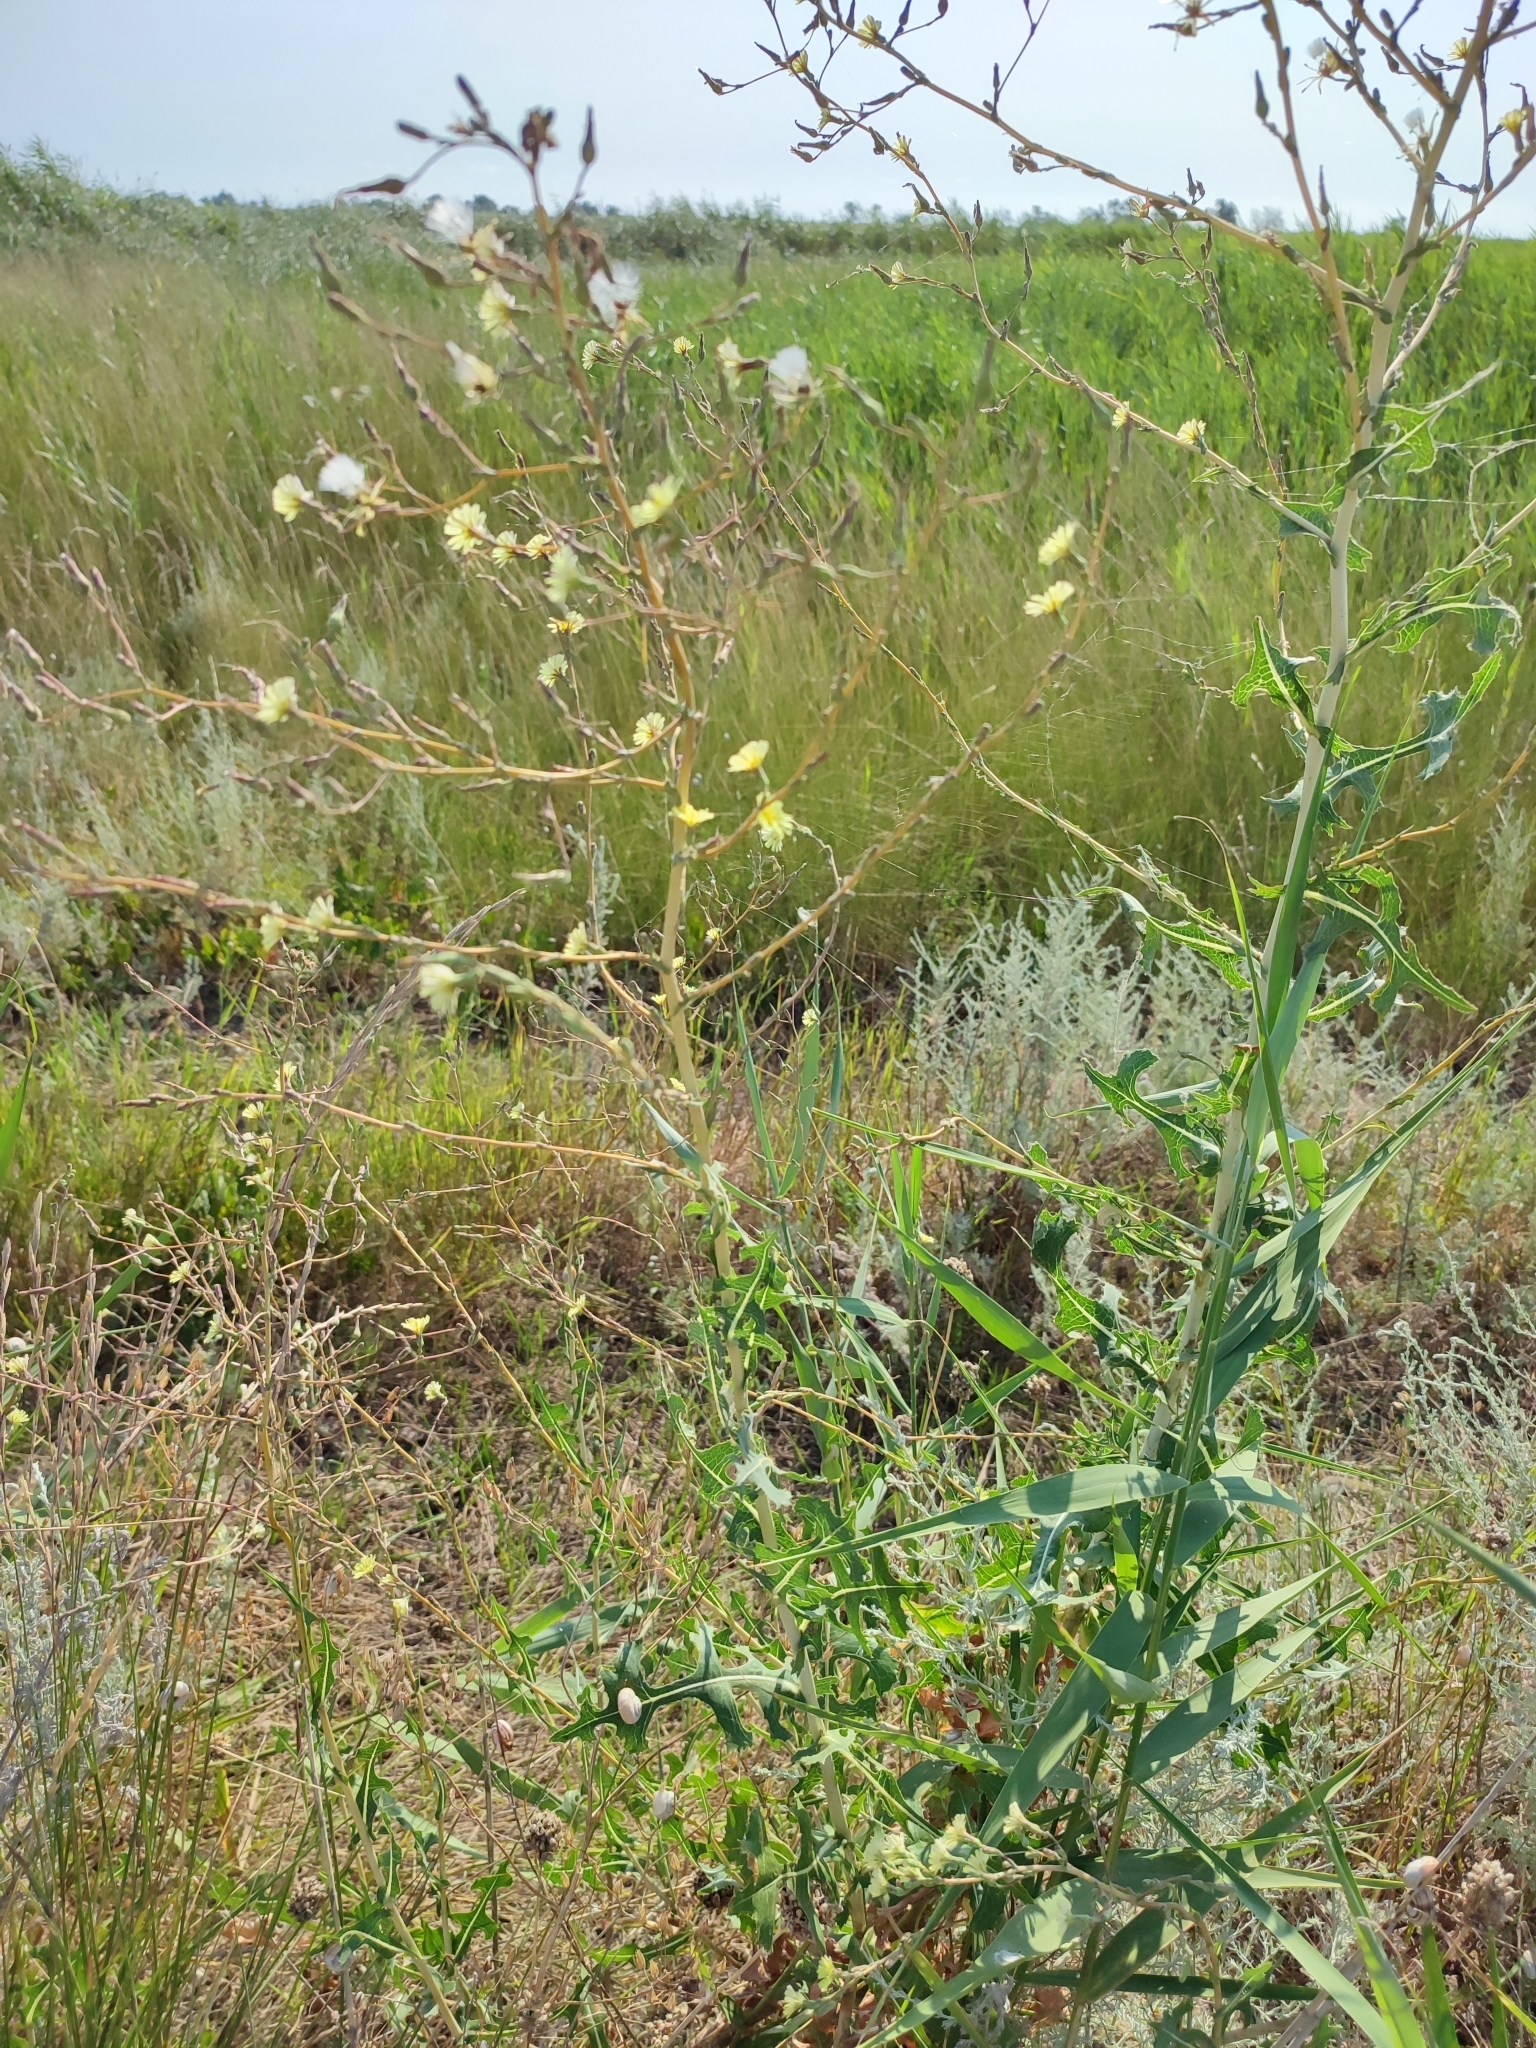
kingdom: Plantae
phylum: Tracheophyta
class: Magnoliopsida
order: Asterales
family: Asteraceae
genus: Lactuca
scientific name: Lactuca serriola
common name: Prickly lettuce
